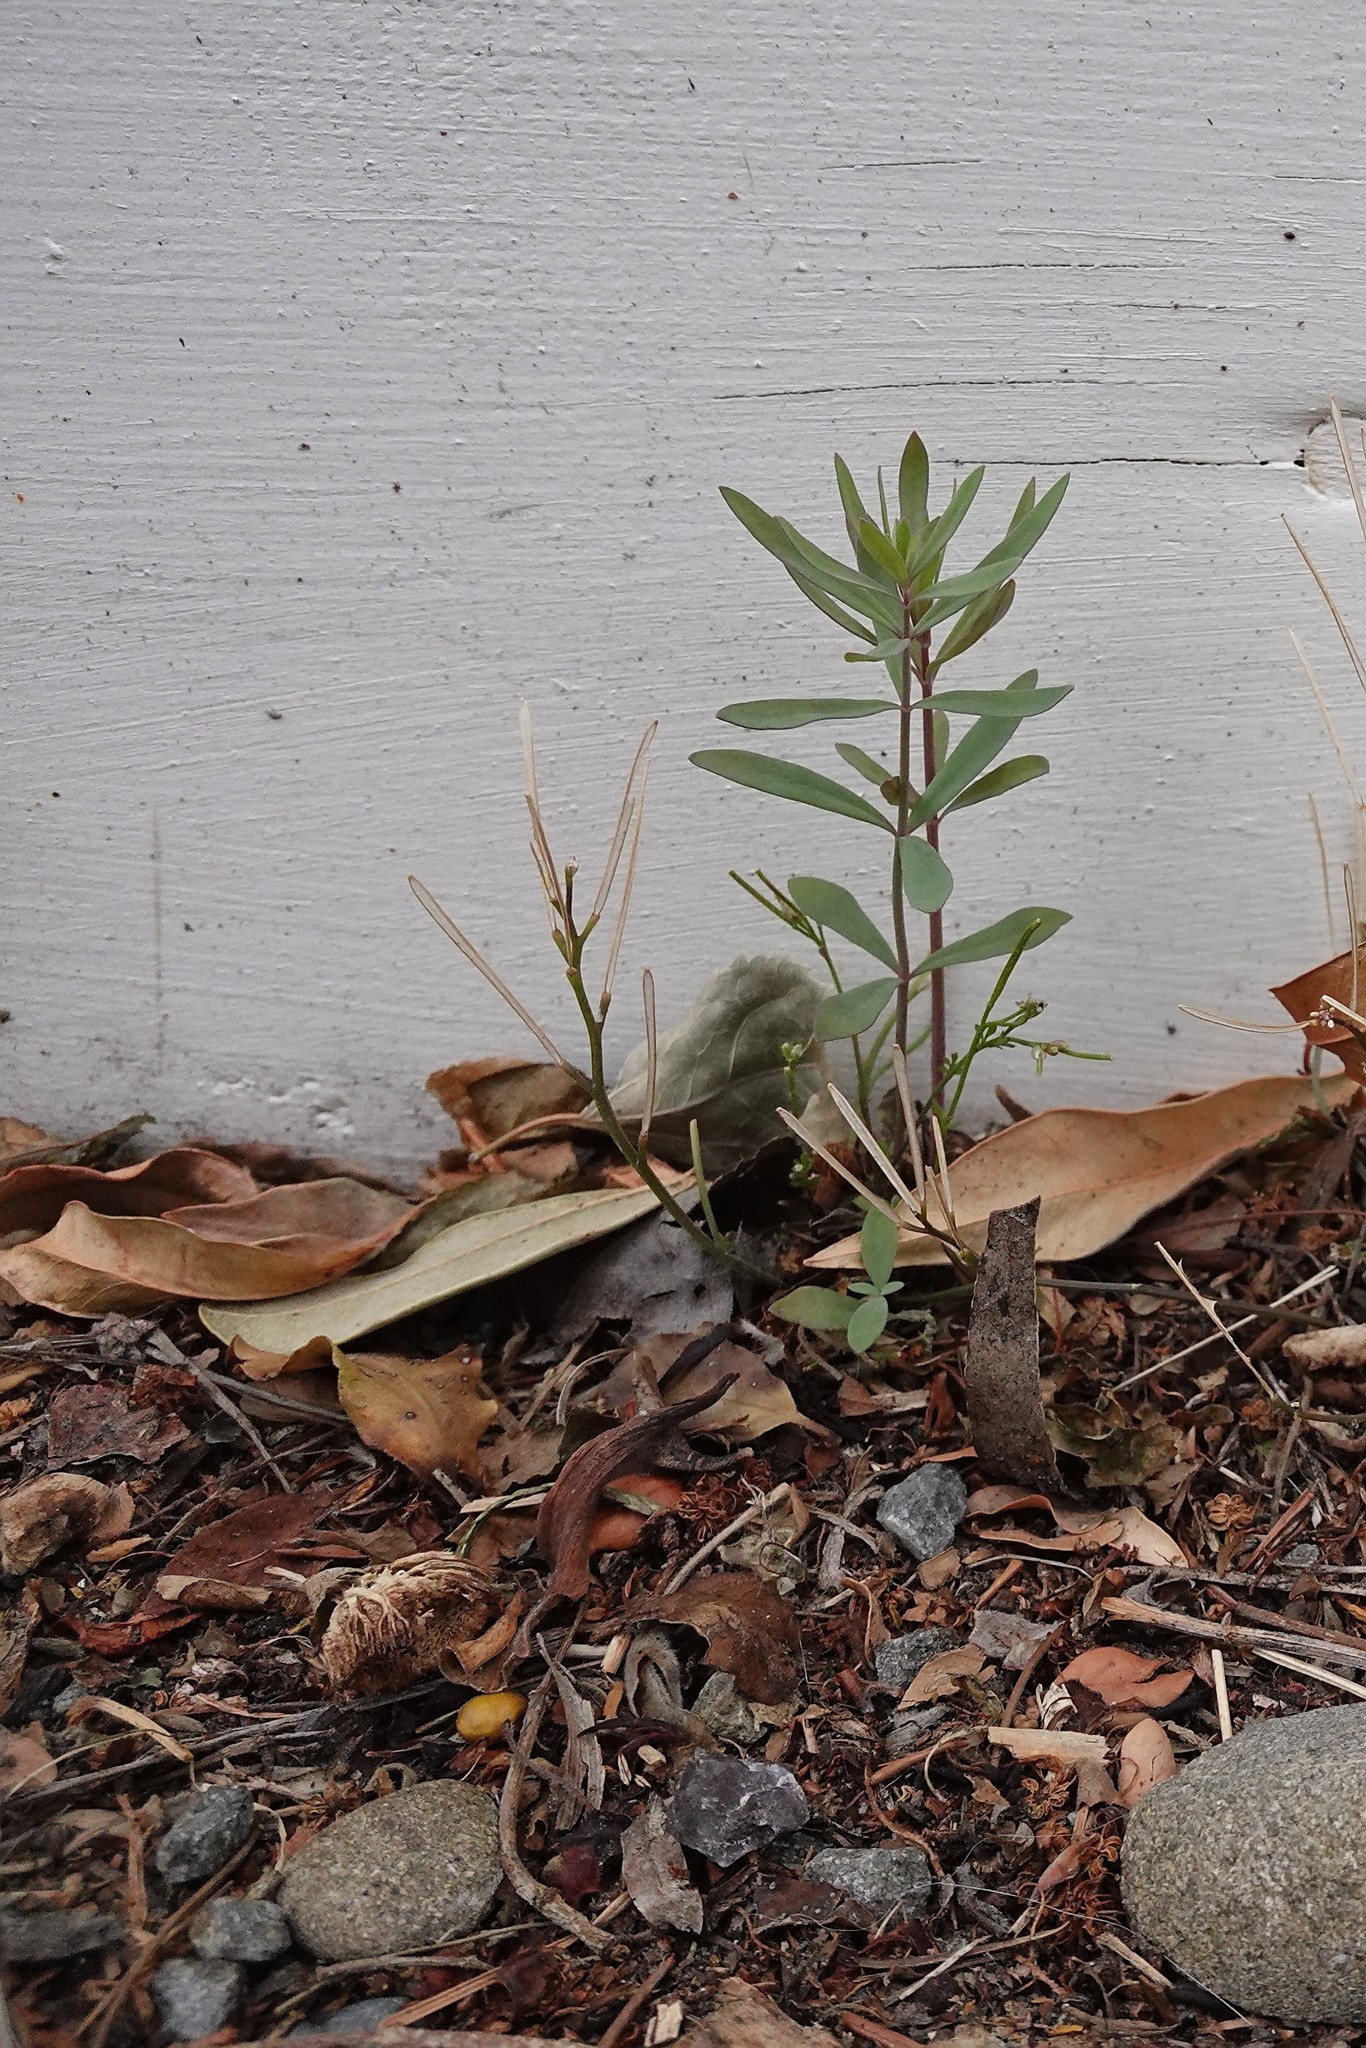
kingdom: Plantae
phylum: Tracheophyta
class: Magnoliopsida
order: Lamiales
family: Plantaginaceae
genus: Linaria
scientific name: Linaria purpurea
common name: Purple toadflax
